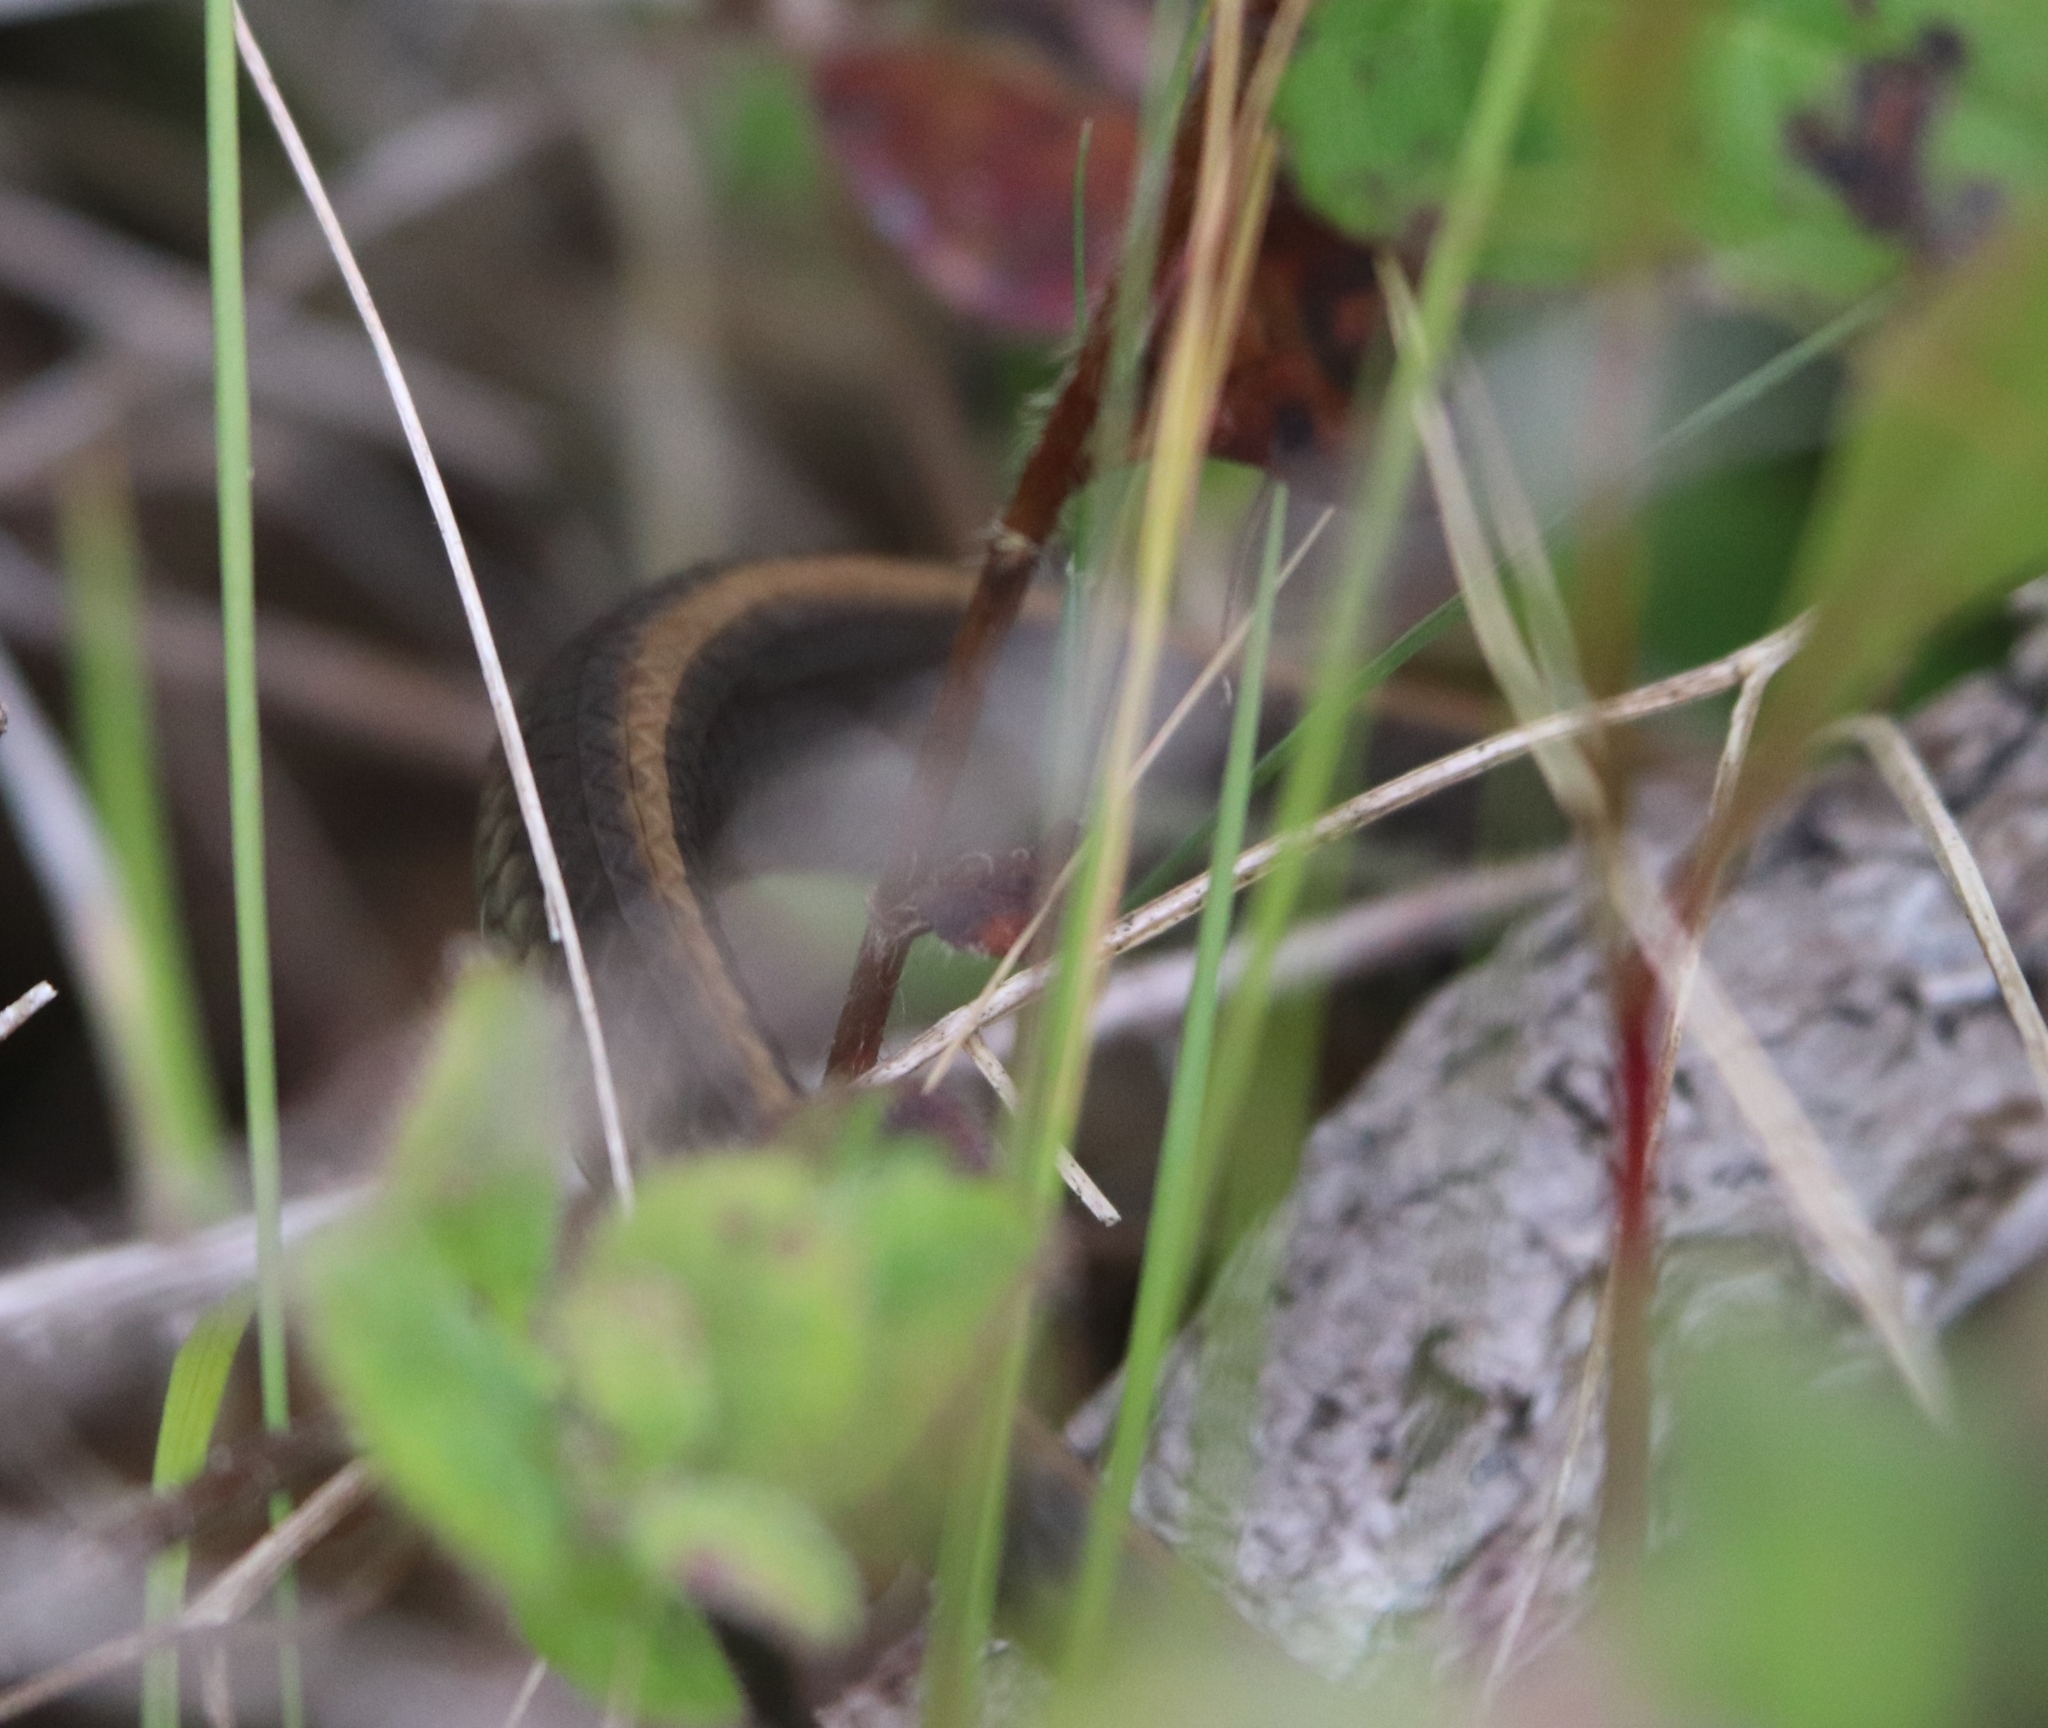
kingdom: Animalia
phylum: Chordata
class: Squamata
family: Colubridae
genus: Thamnophis
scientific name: Thamnophis atratus
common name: Pacific coast aquatic garter snake
